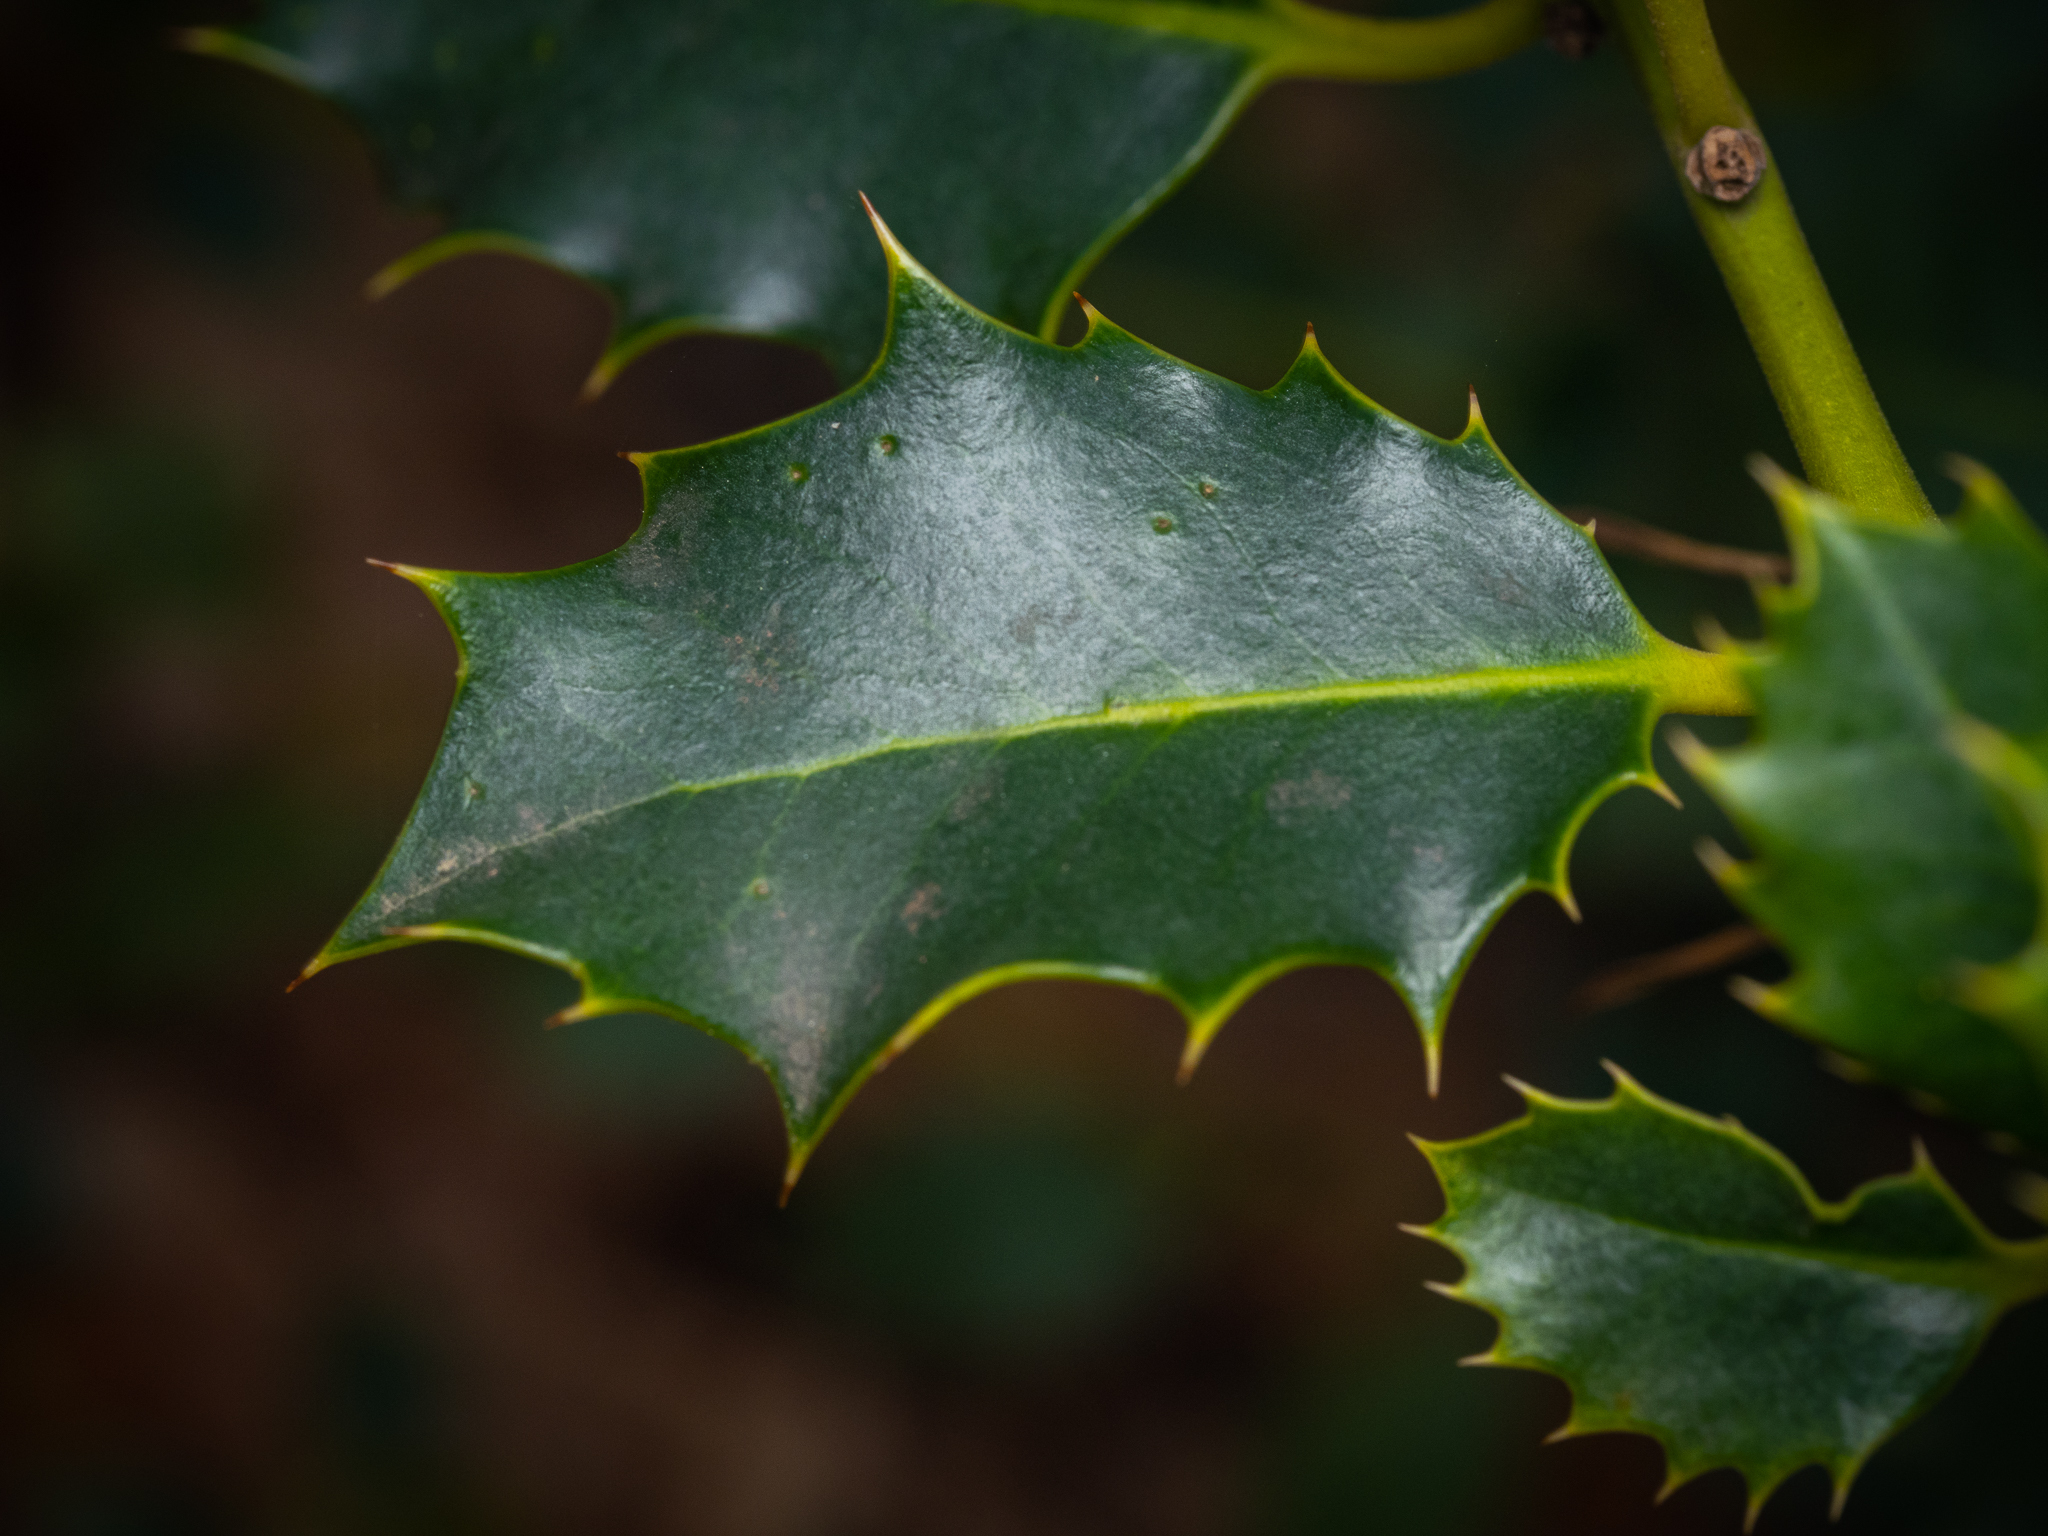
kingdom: Plantae
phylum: Tracheophyta
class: Magnoliopsida
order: Aquifoliales
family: Aquifoliaceae
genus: Ilex
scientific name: Ilex aquifolium
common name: English holly
